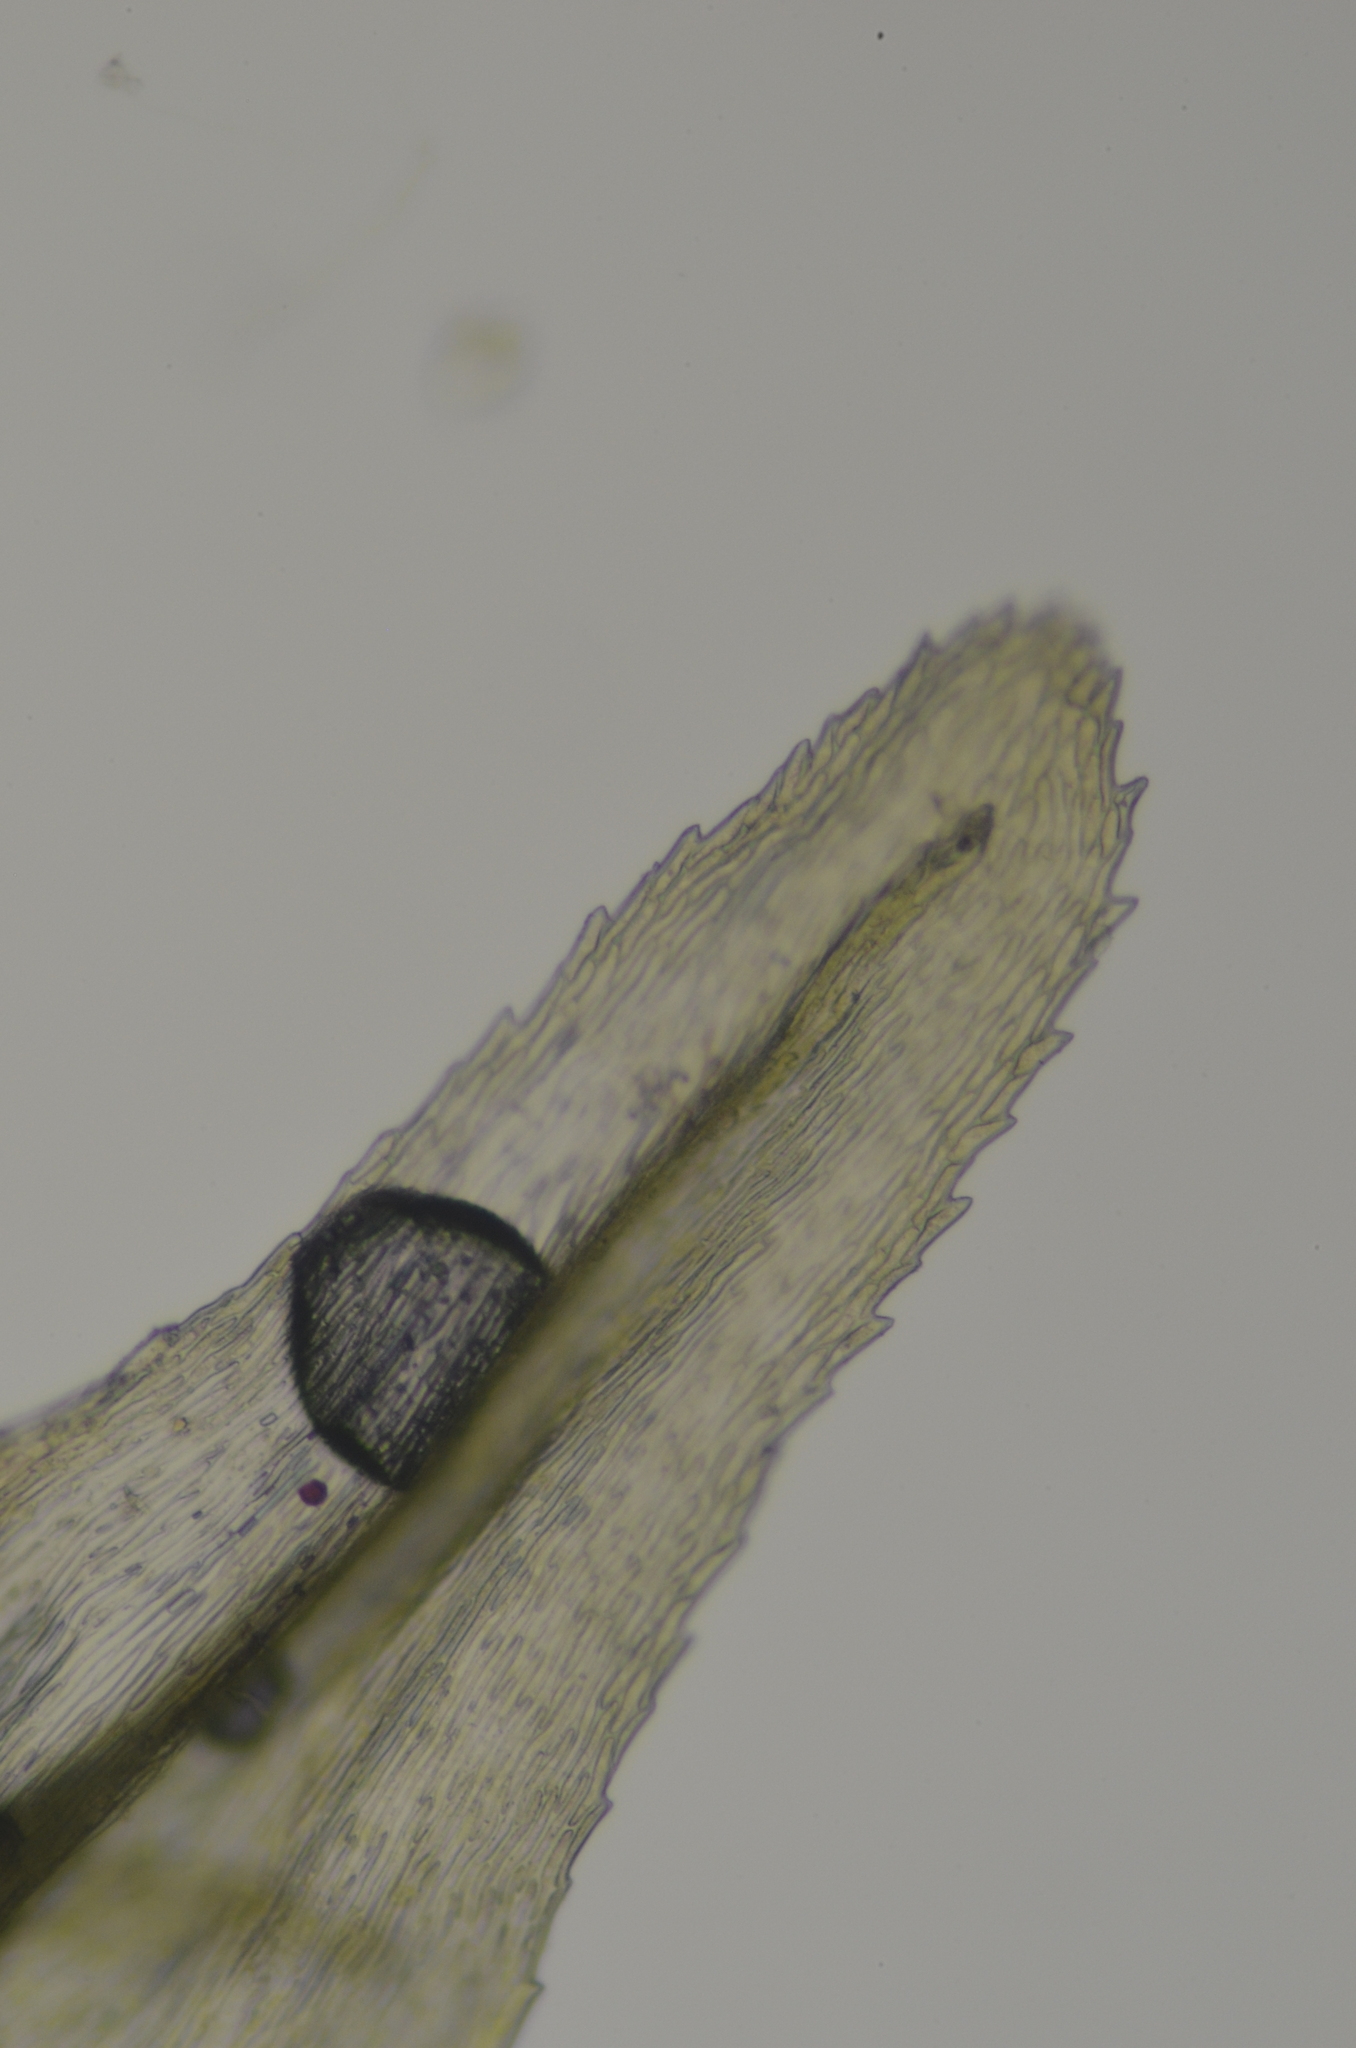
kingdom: Plantae
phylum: Bryophyta
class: Bryopsida
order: Hypnales
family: Brachytheciaceae
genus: Eurhynchiastrum
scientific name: Eurhynchiastrum pulchellum
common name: Elegant beaked moss
